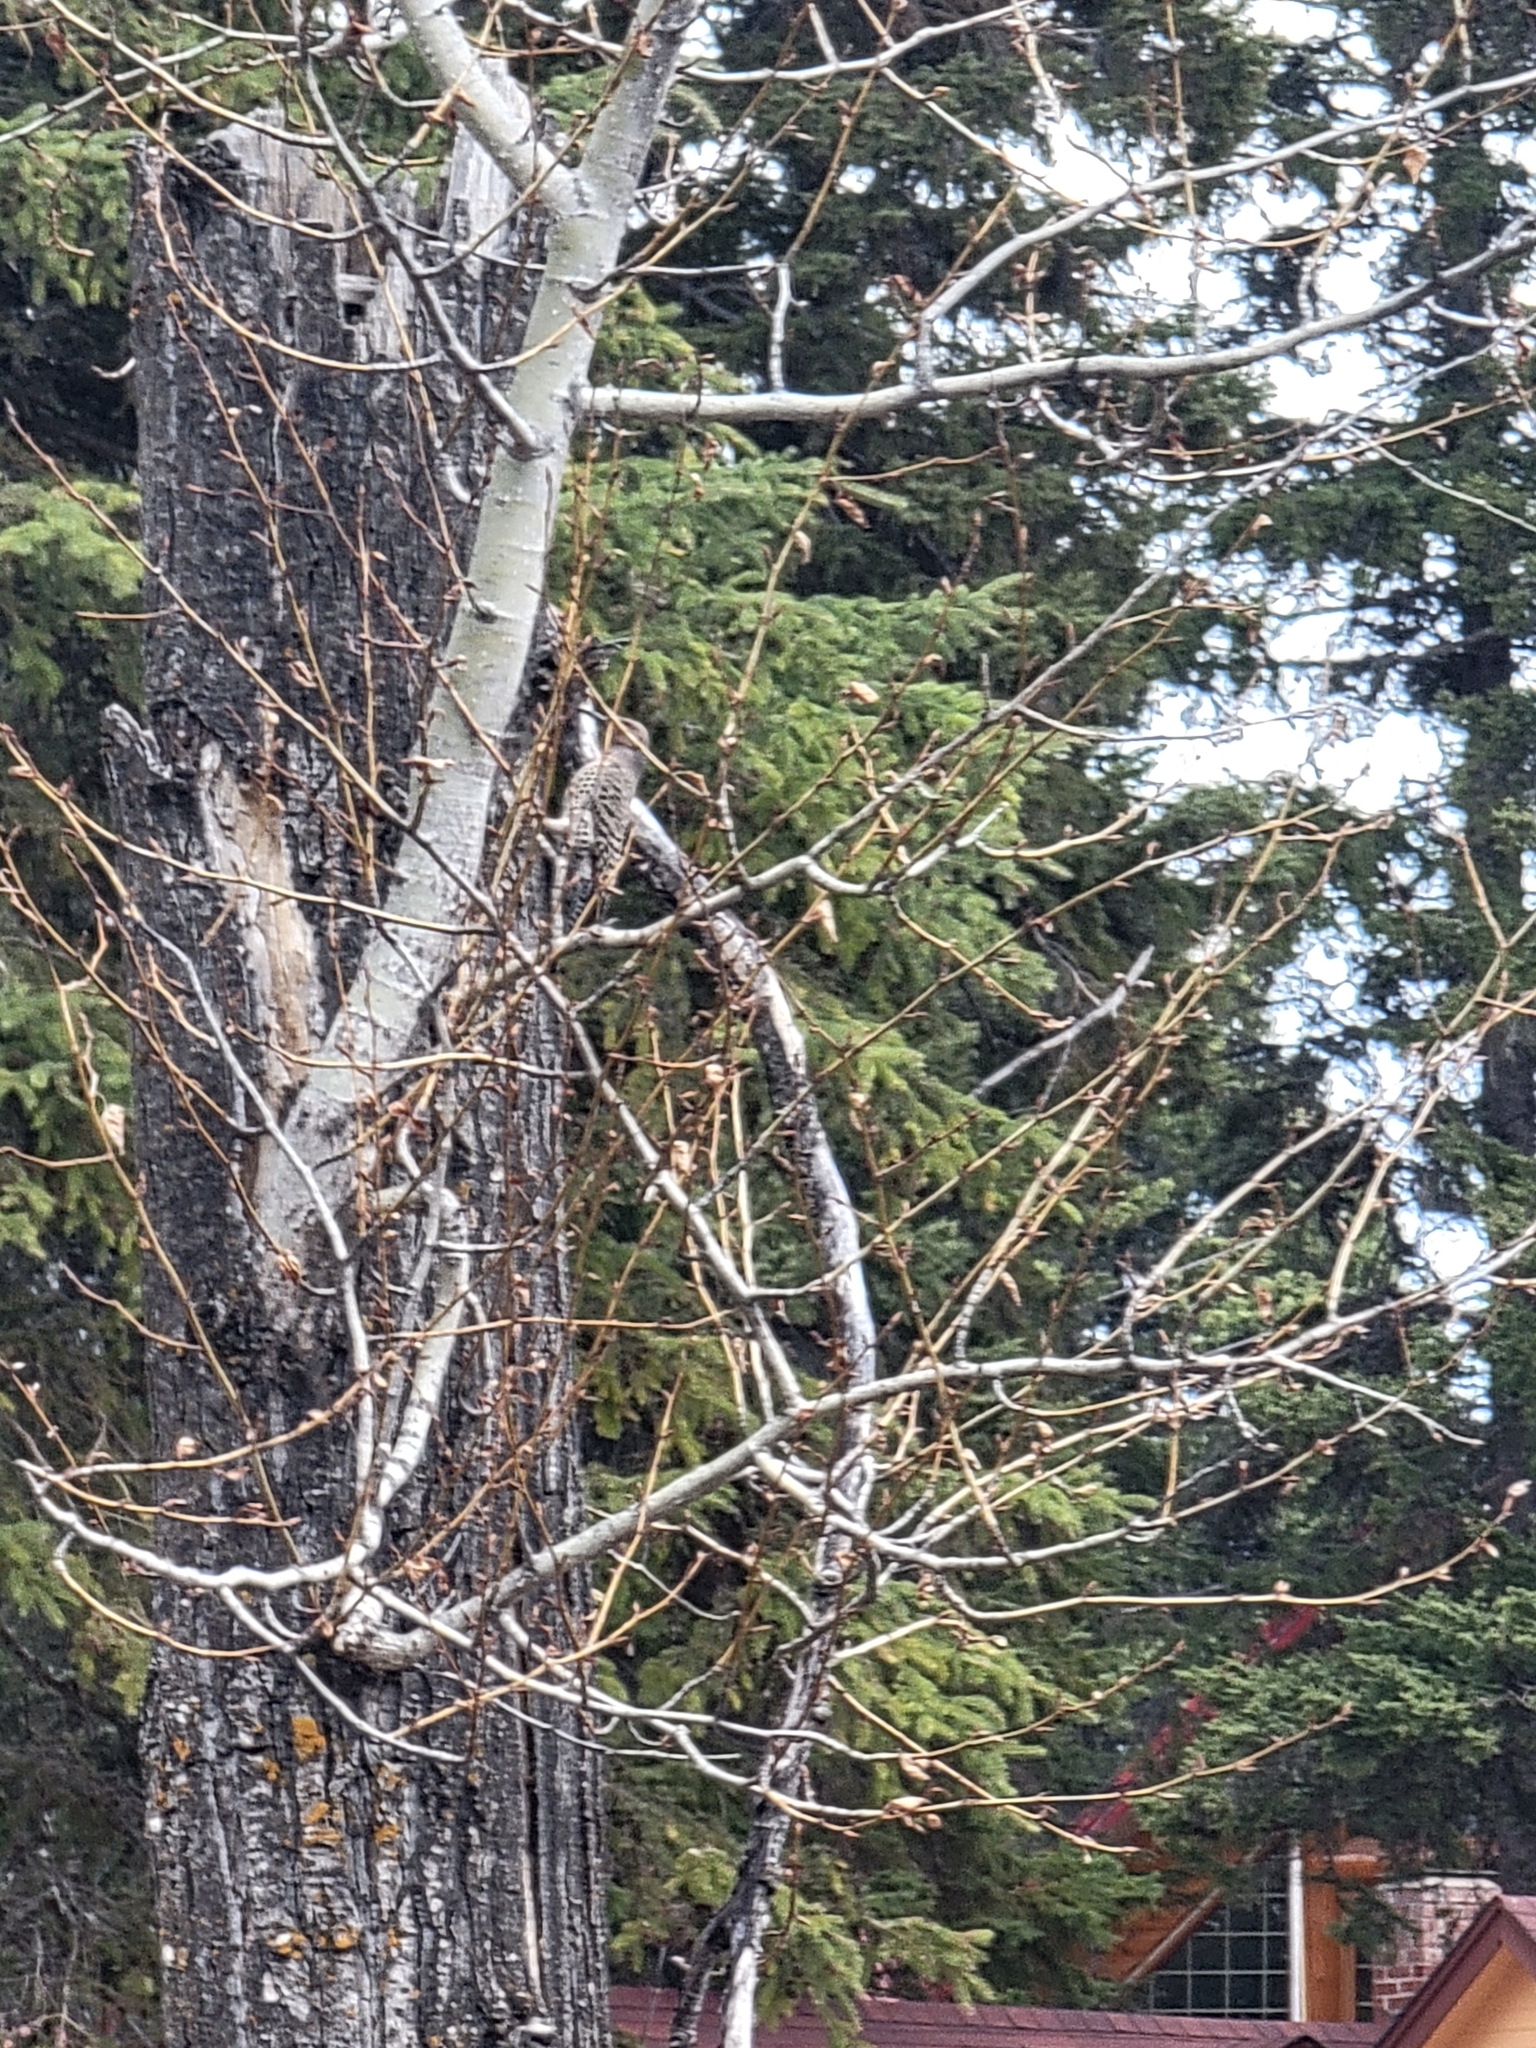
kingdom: Animalia
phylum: Chordata
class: Aves
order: Piciformes
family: Picidae
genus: Colaptes
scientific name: Colaptes auratus
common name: Northern flicker
